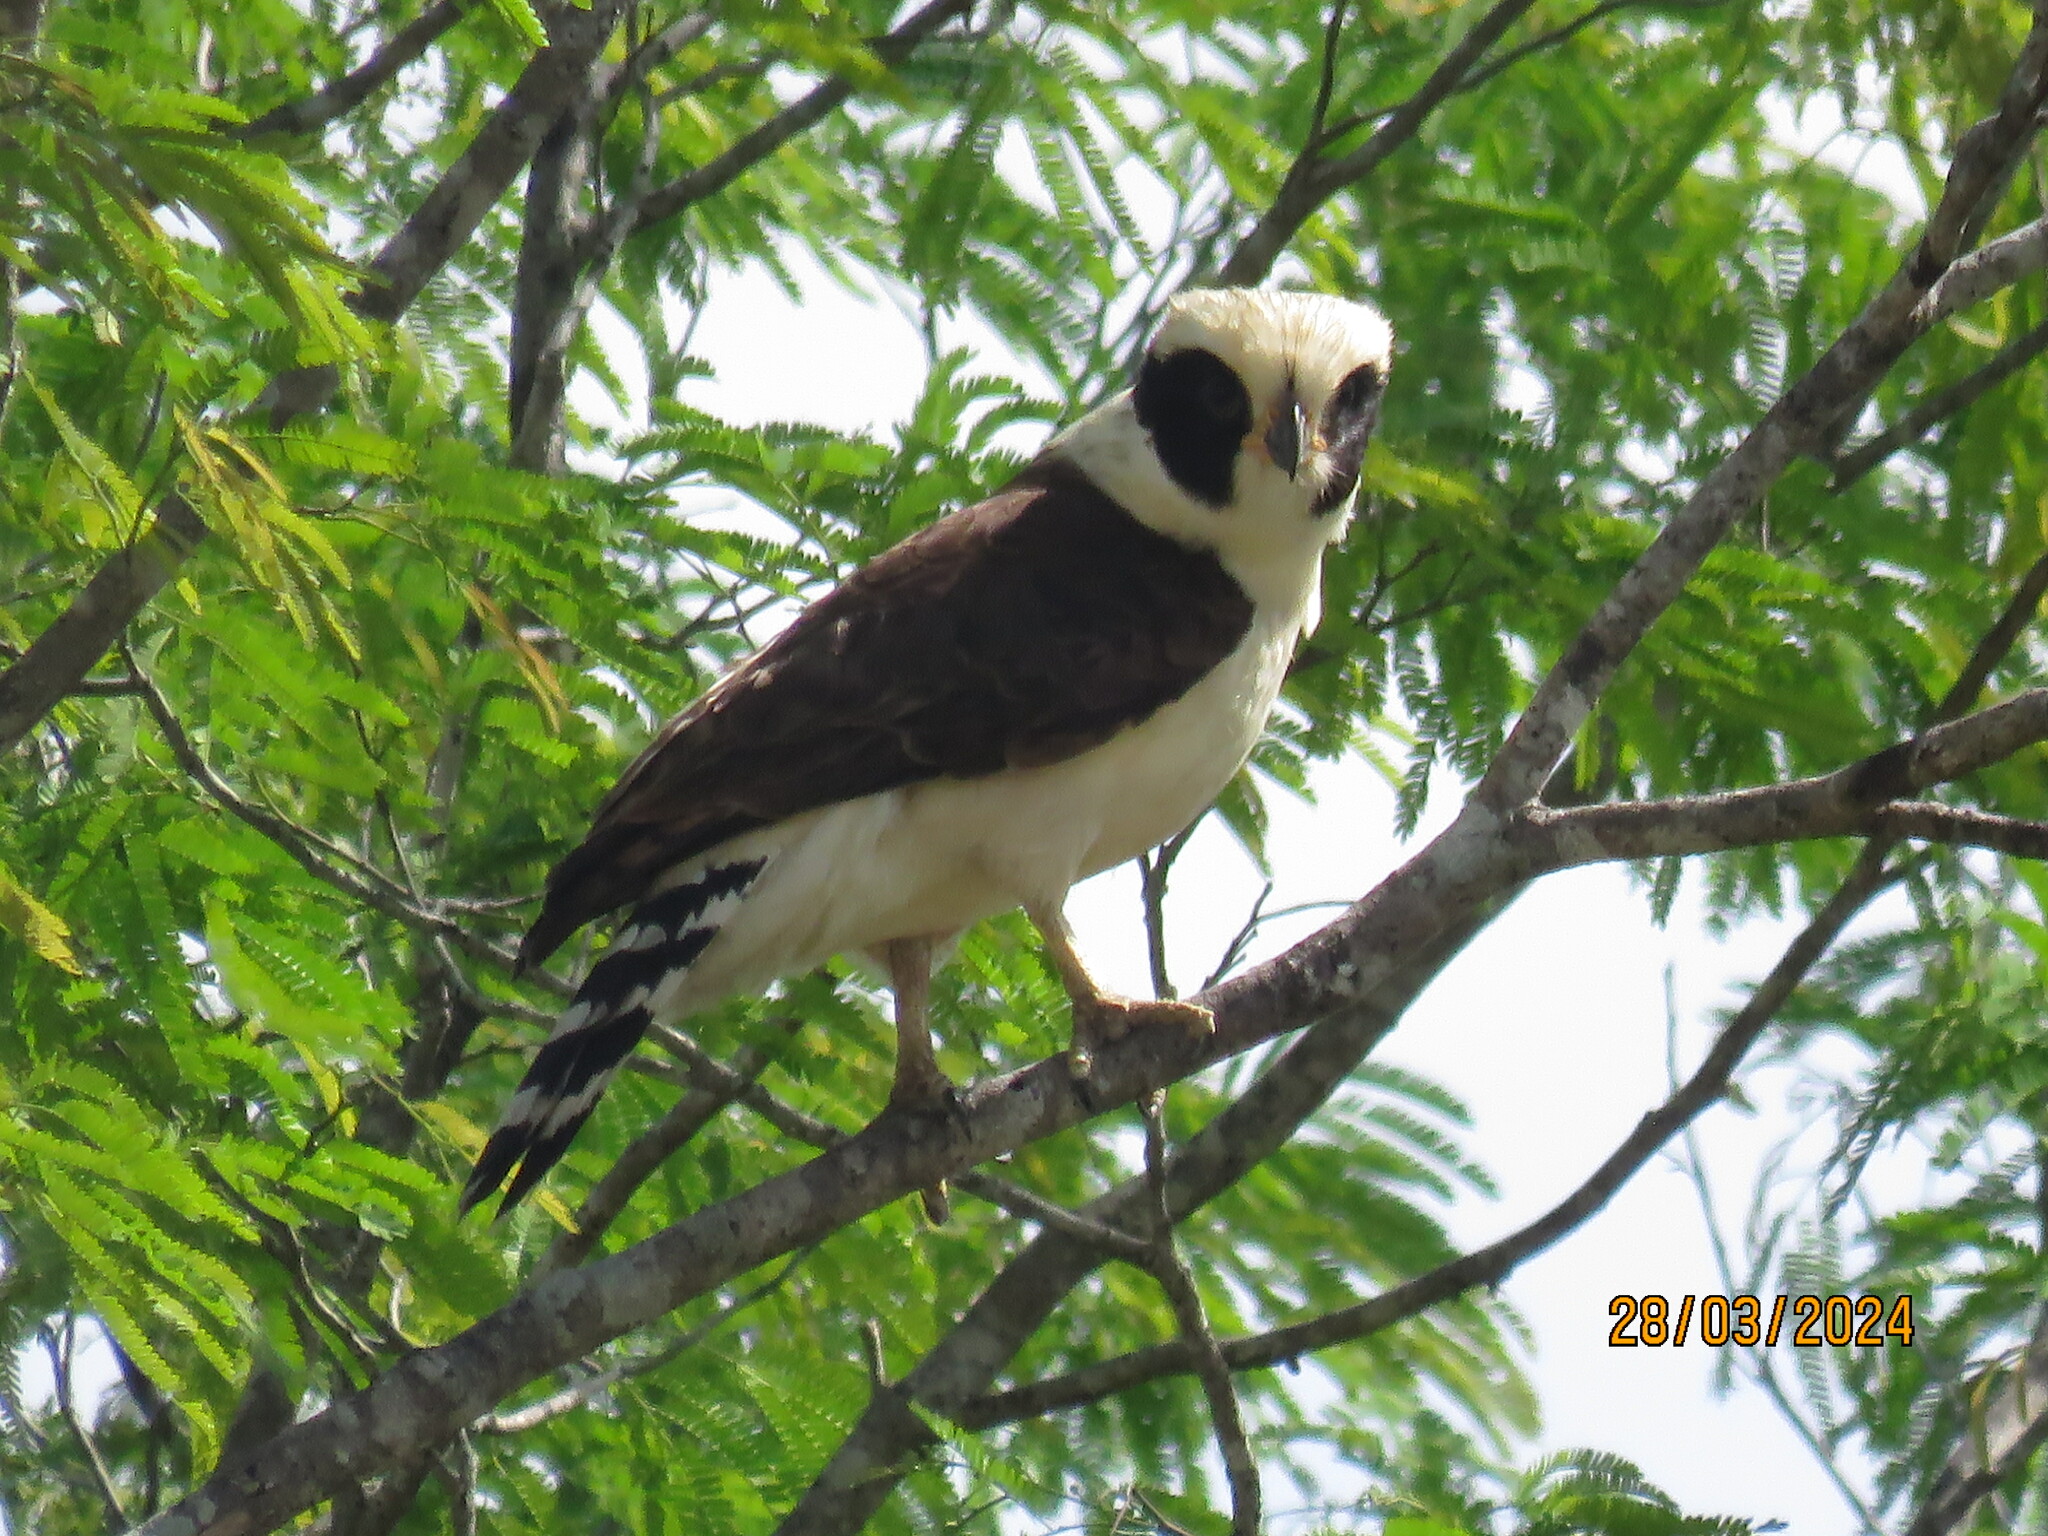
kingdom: Animalia
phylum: Chordata
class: Aves
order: Falconiformes
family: Falconidae
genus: Herpetotheres
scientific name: Herpetotheres cachinnans
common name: Laughing falcon
